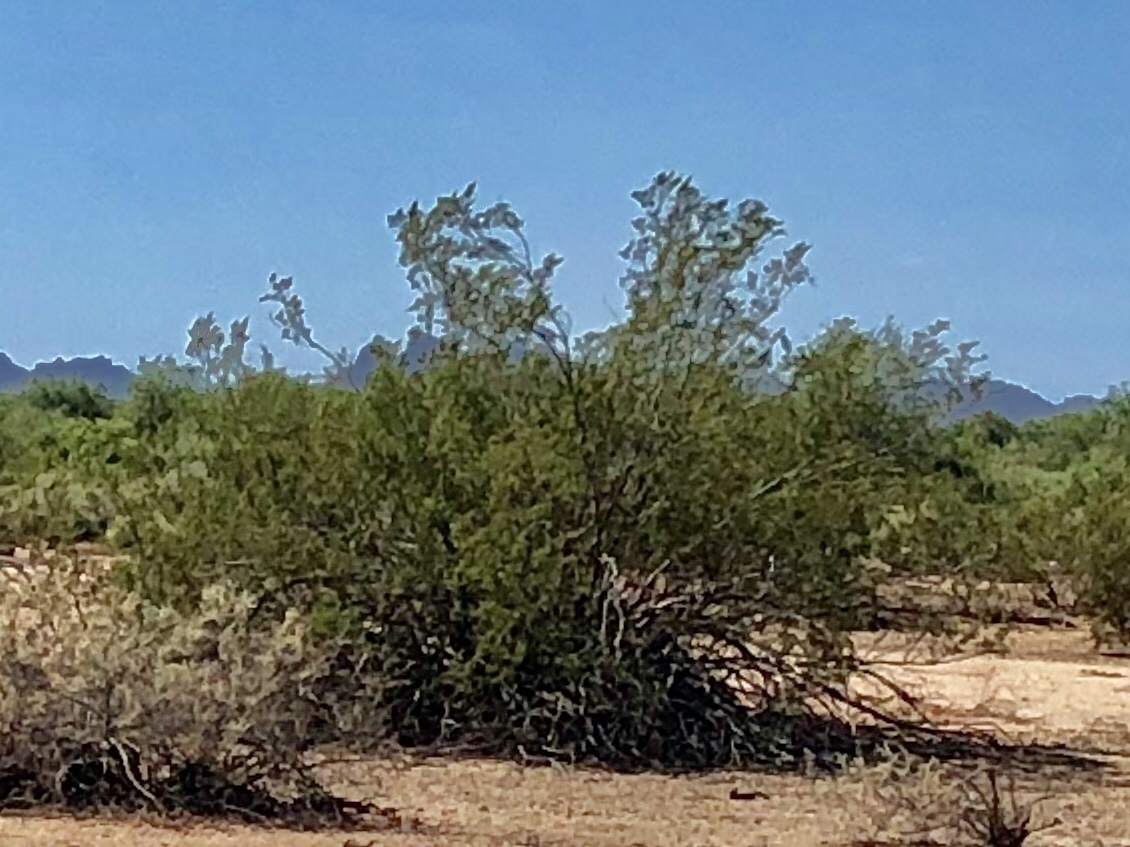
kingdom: Plantae
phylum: Tracheophyta
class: Magnoliopsida
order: Zygophyllales
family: Zygophyllaceae
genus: Larrea
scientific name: Larrea tridentata
